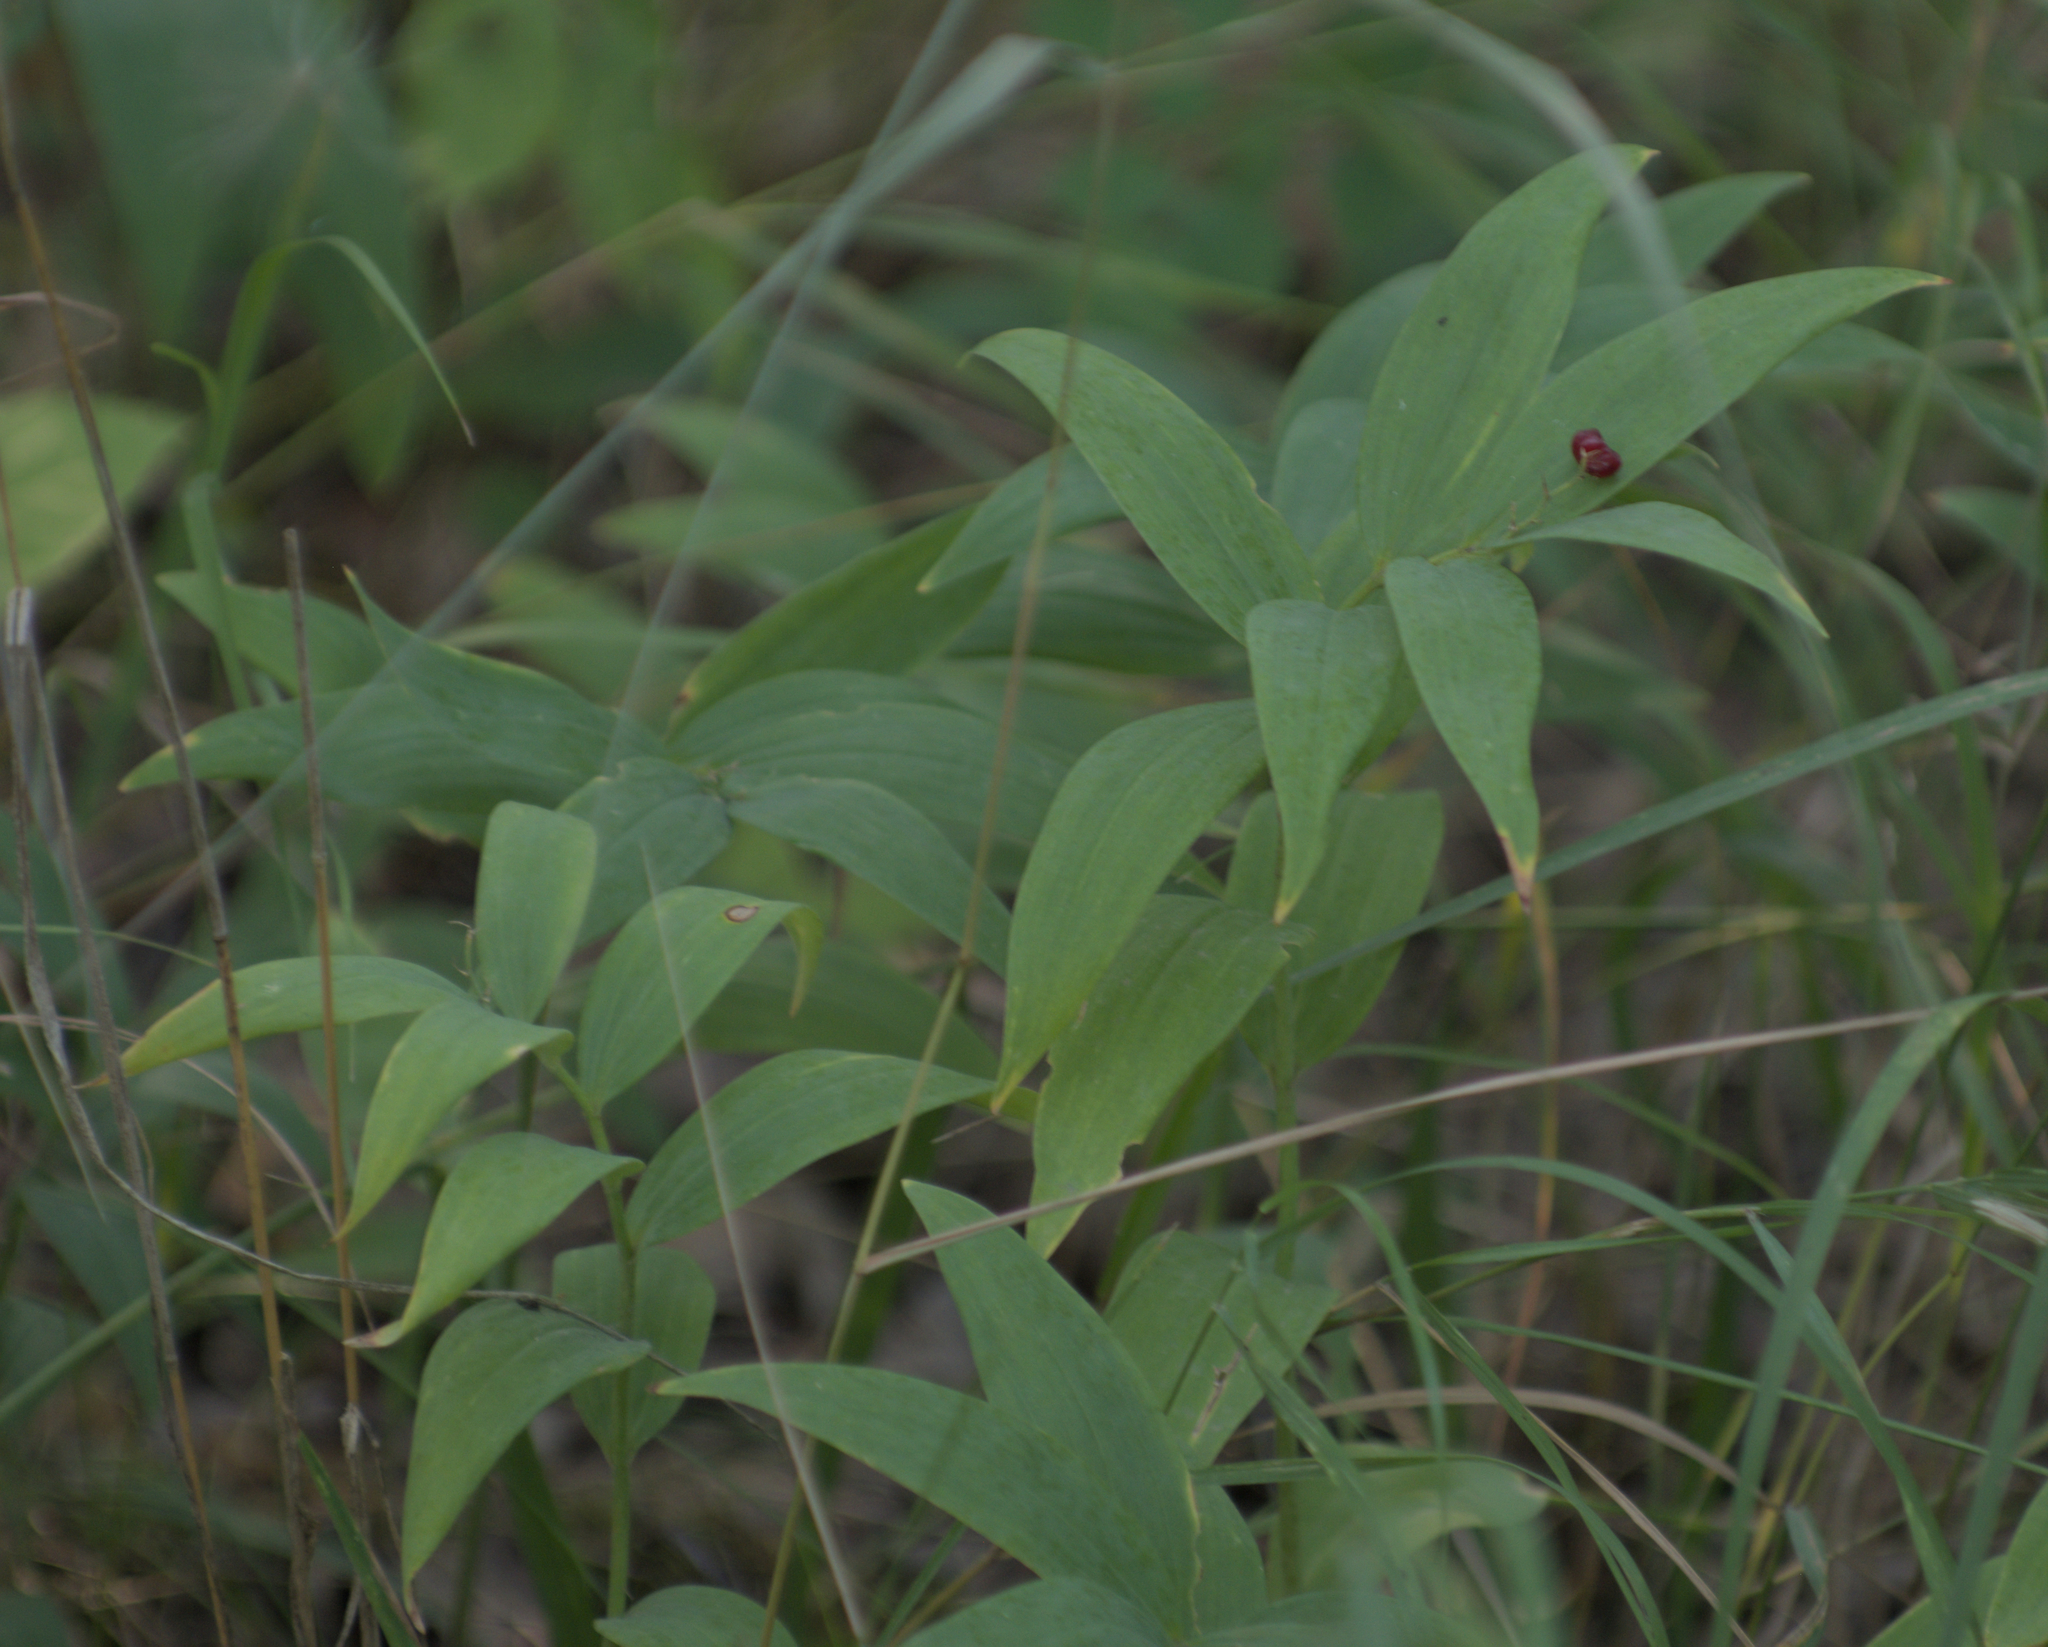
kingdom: Plantae
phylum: Tracheophyta
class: Liliopsida
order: Asparagales
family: Asparagaceae
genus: Maianthemum
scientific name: Maianthemum stellatum
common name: Little false solomon's seal
